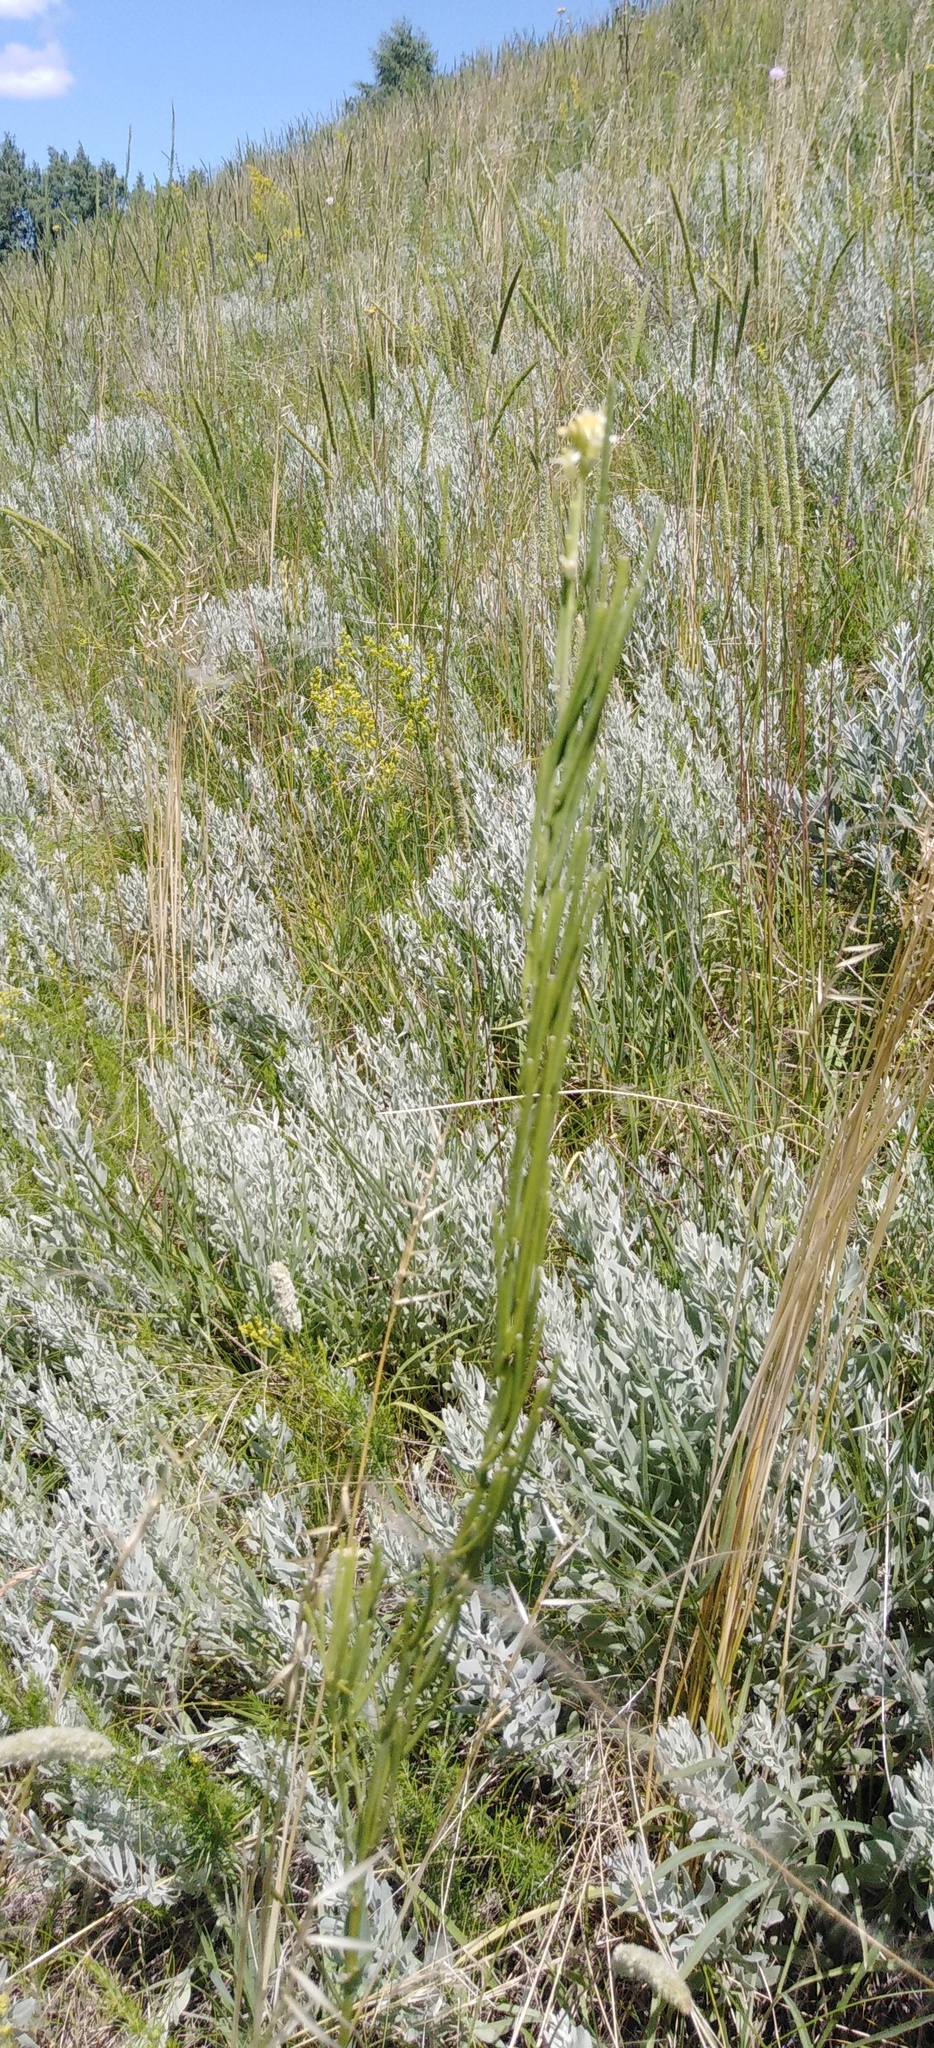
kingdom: Plantae
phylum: Tracheophyta
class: Magnoliopsida
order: Brassicales
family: Brassicaceae
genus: Erysimum
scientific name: Erysimum hieraciifolium
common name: European wallflower
